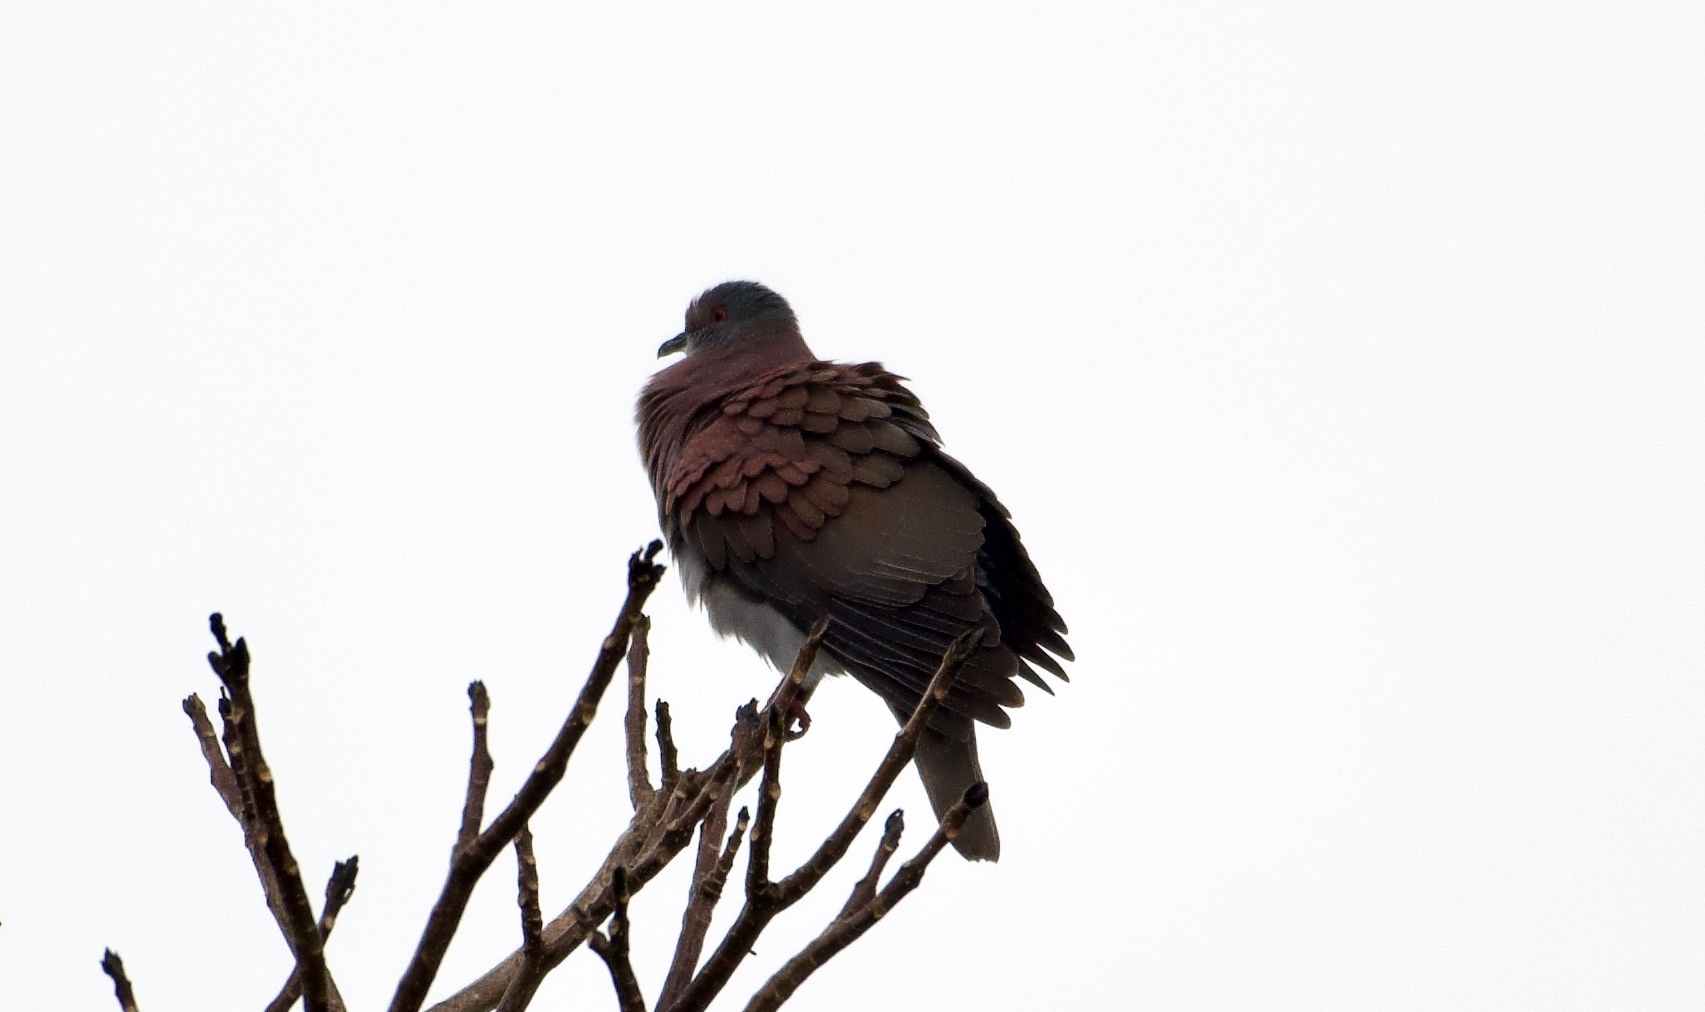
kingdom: Animalia
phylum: Chordata
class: Aves
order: Columbiformes
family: Columbidae
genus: Patagioenas
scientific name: Patagioenas cayennensis
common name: Pale-vented pigeon
